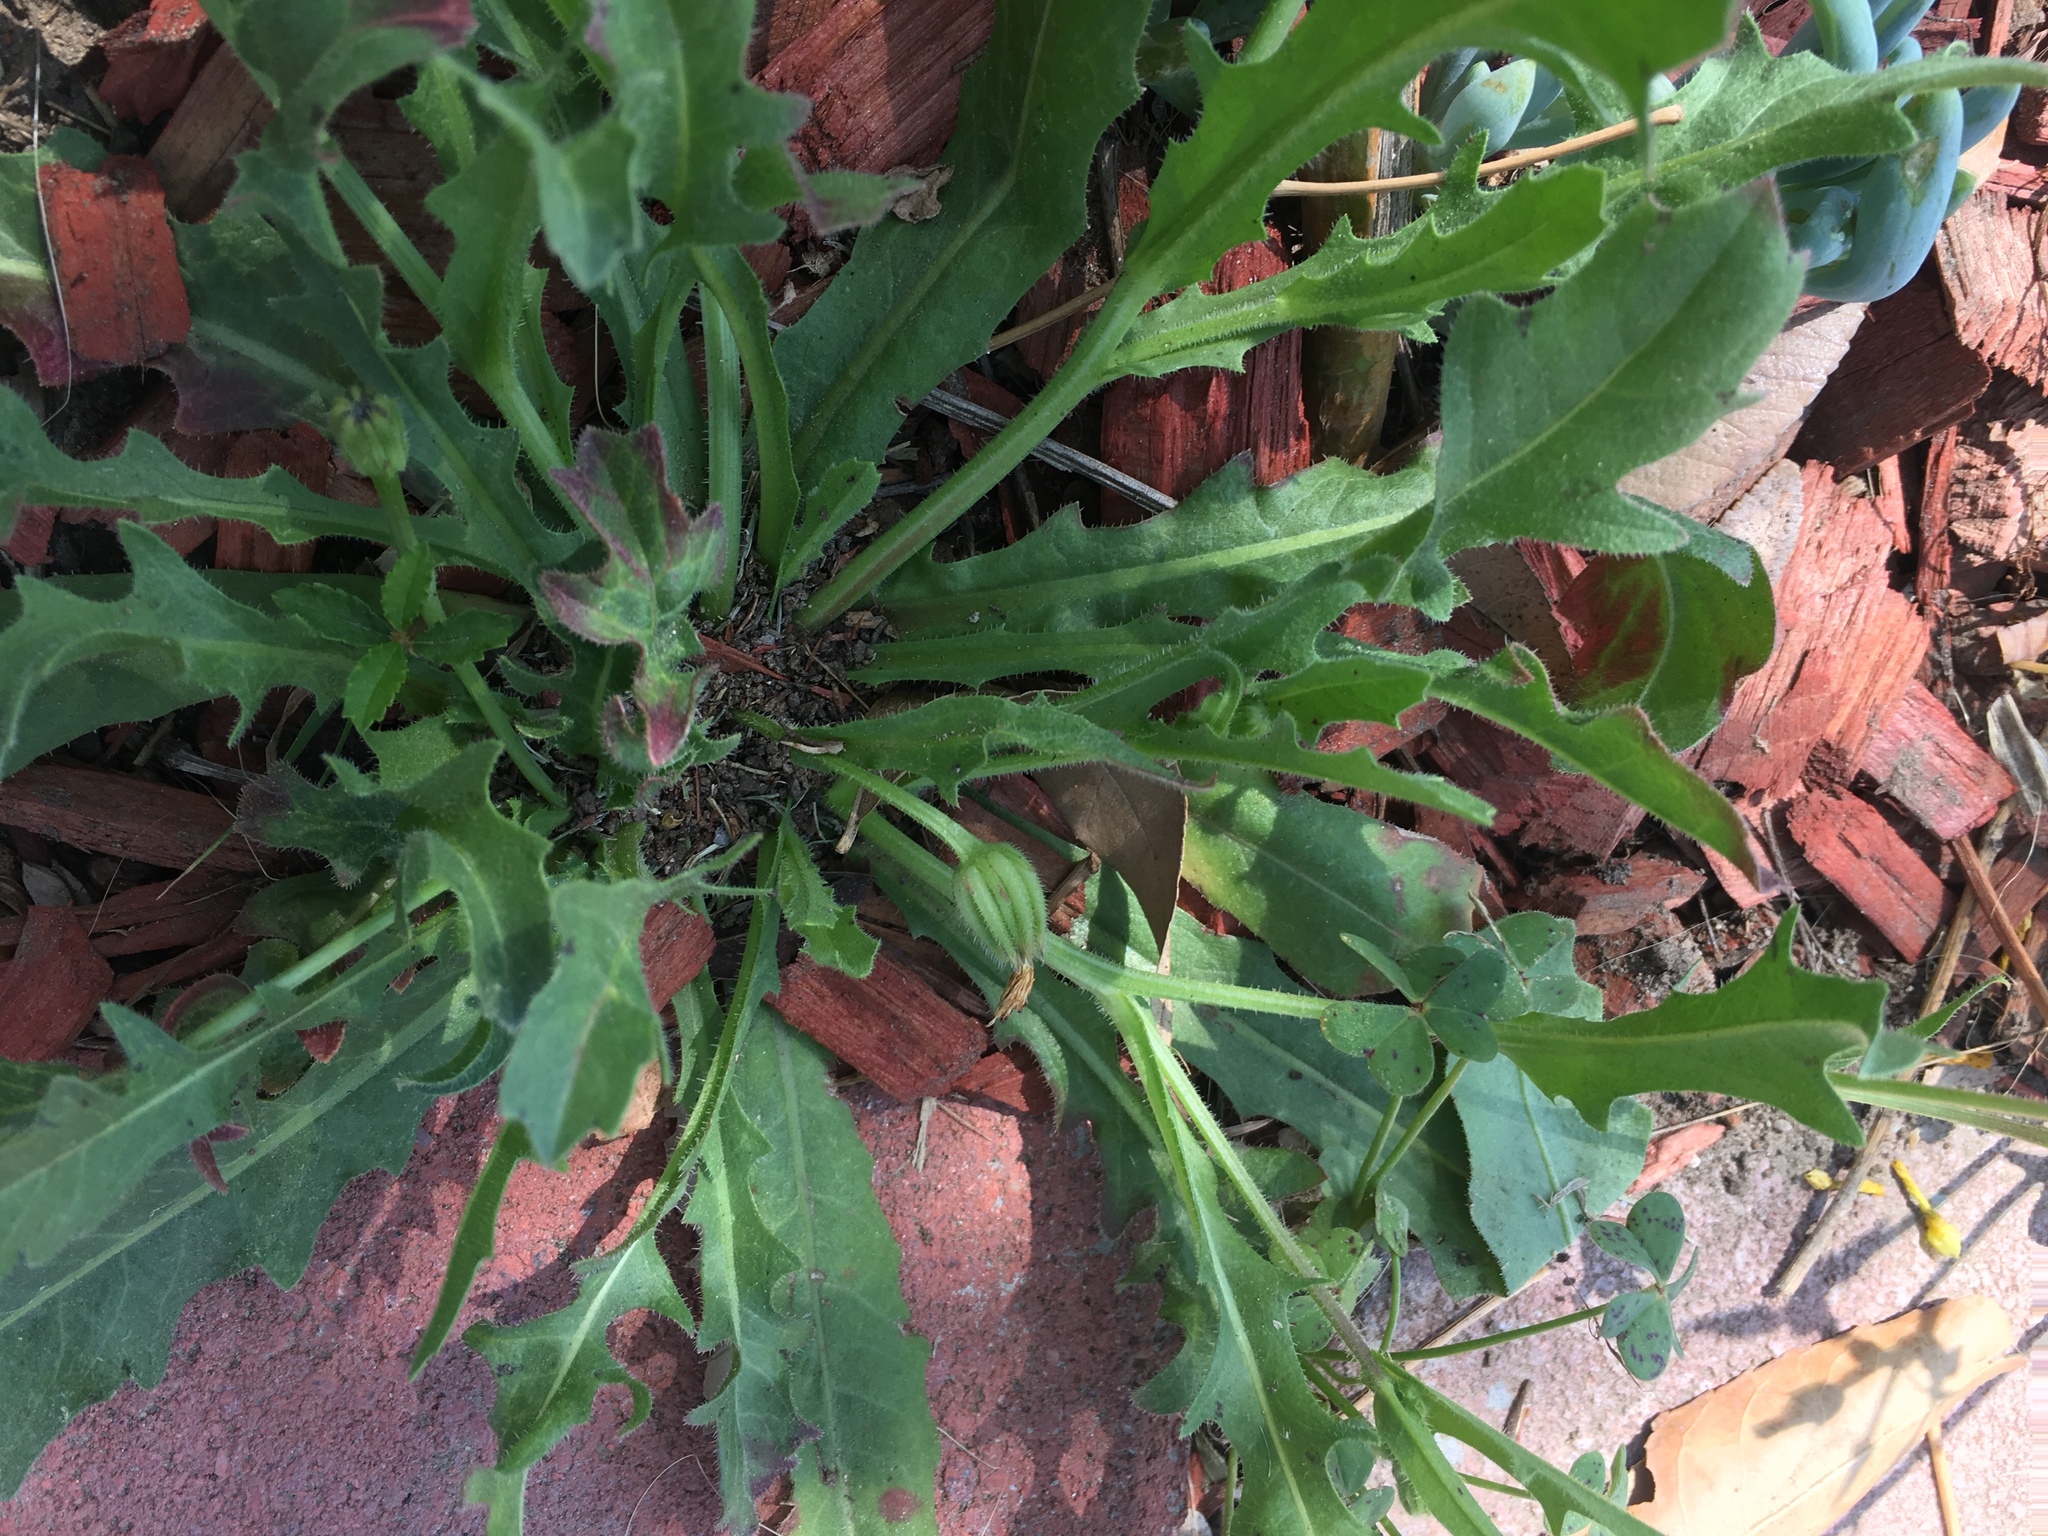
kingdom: Plantae
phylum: Tracheophyta
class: Magnoliopsida
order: Asterales
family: Asteraceae
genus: Hedypnois
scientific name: Hedypnois rhagadioloides
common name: Cretan weed
